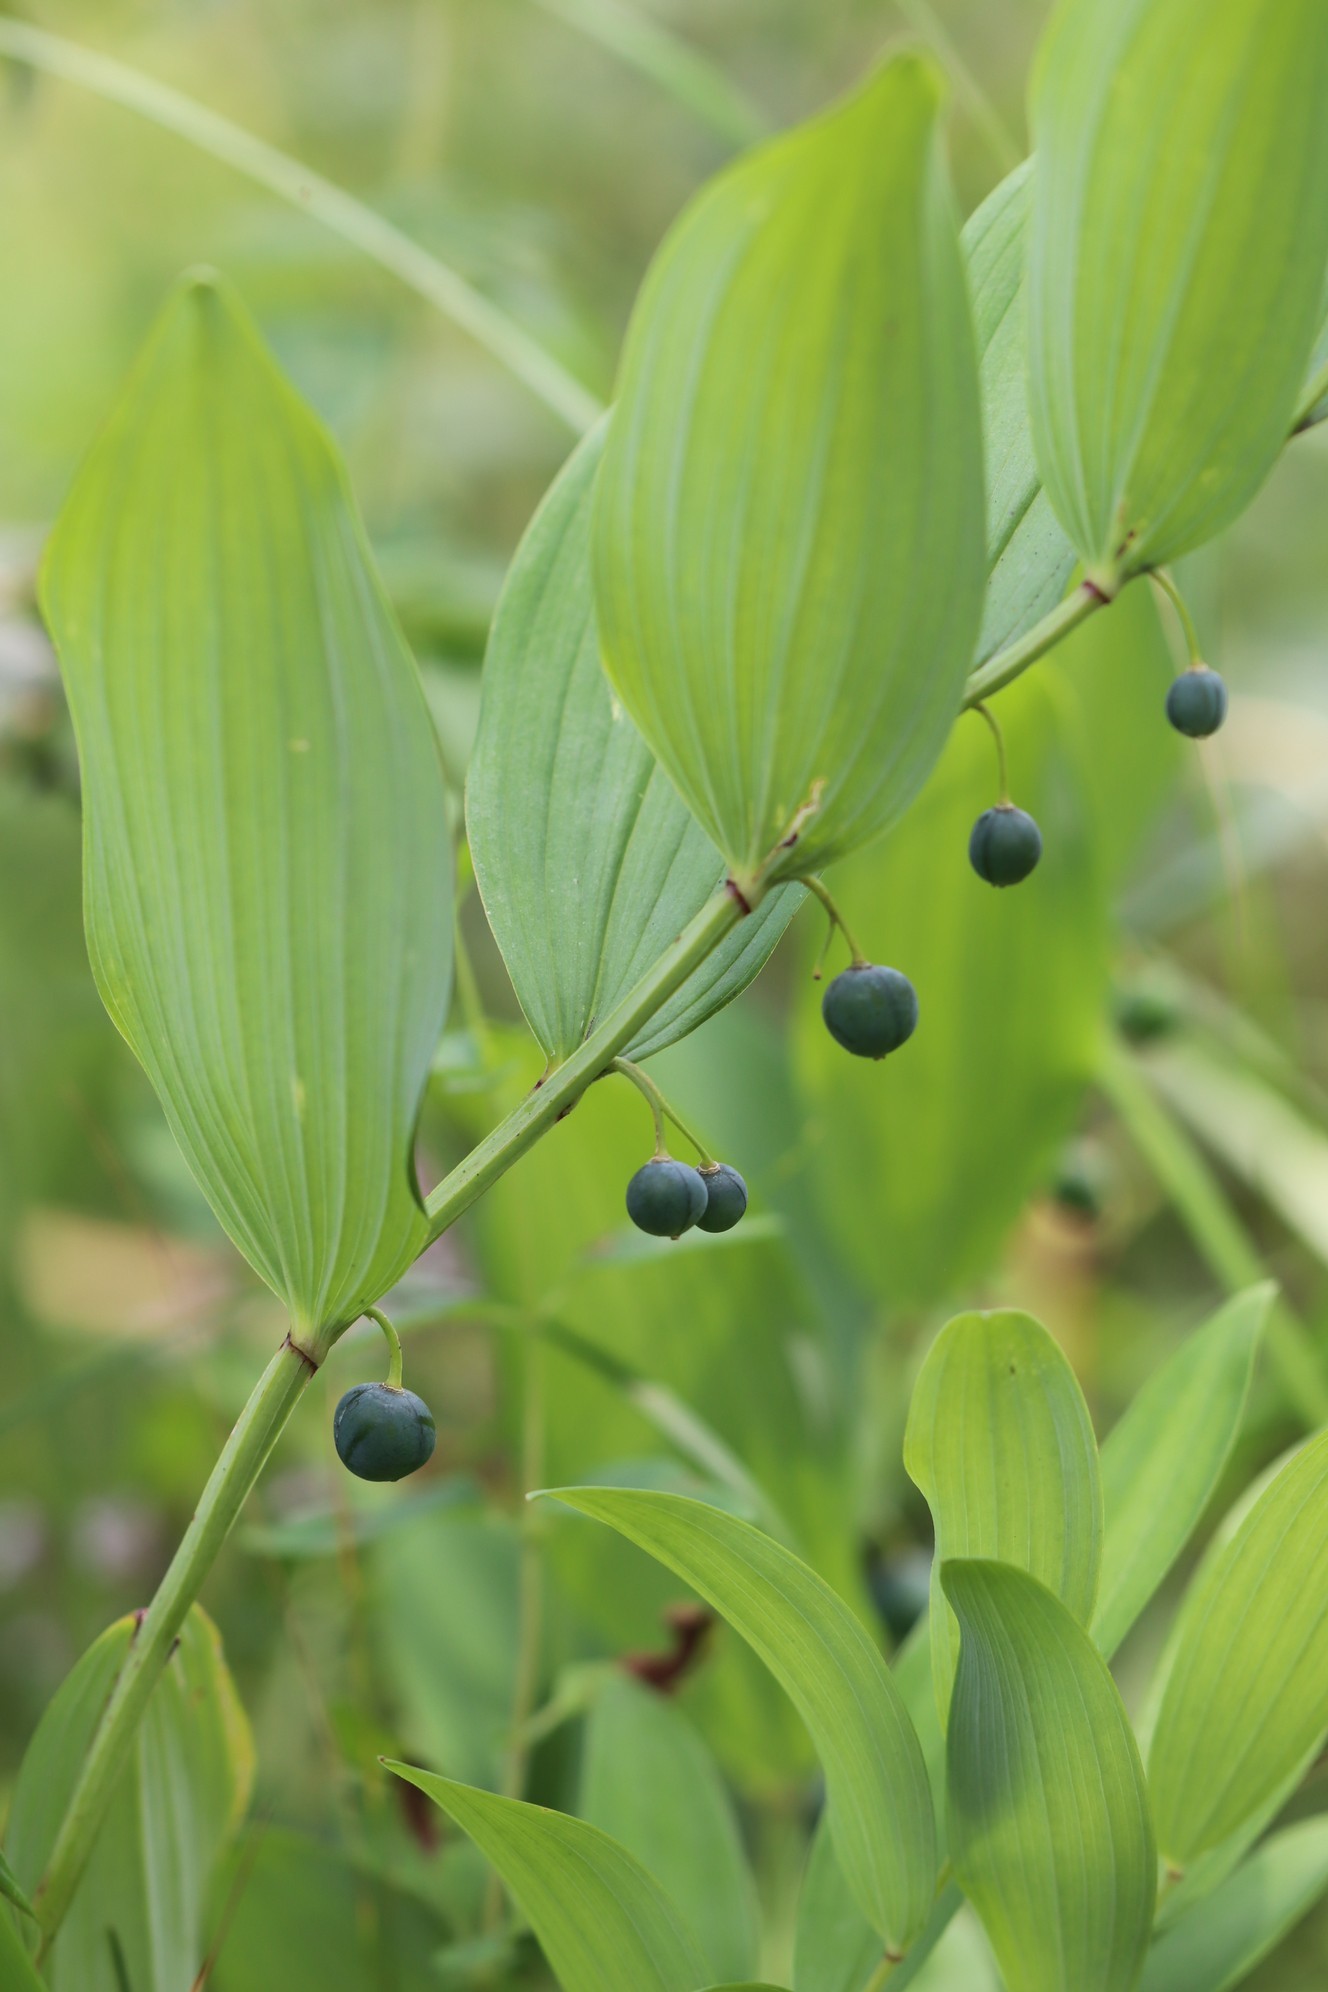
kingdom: Plantae
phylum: Tracheophyta
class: Liliopsida
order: Asparagales
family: Asparagaceae
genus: Polygonatum
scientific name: Polygonatum odoratum
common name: Angular solomon's-seal
